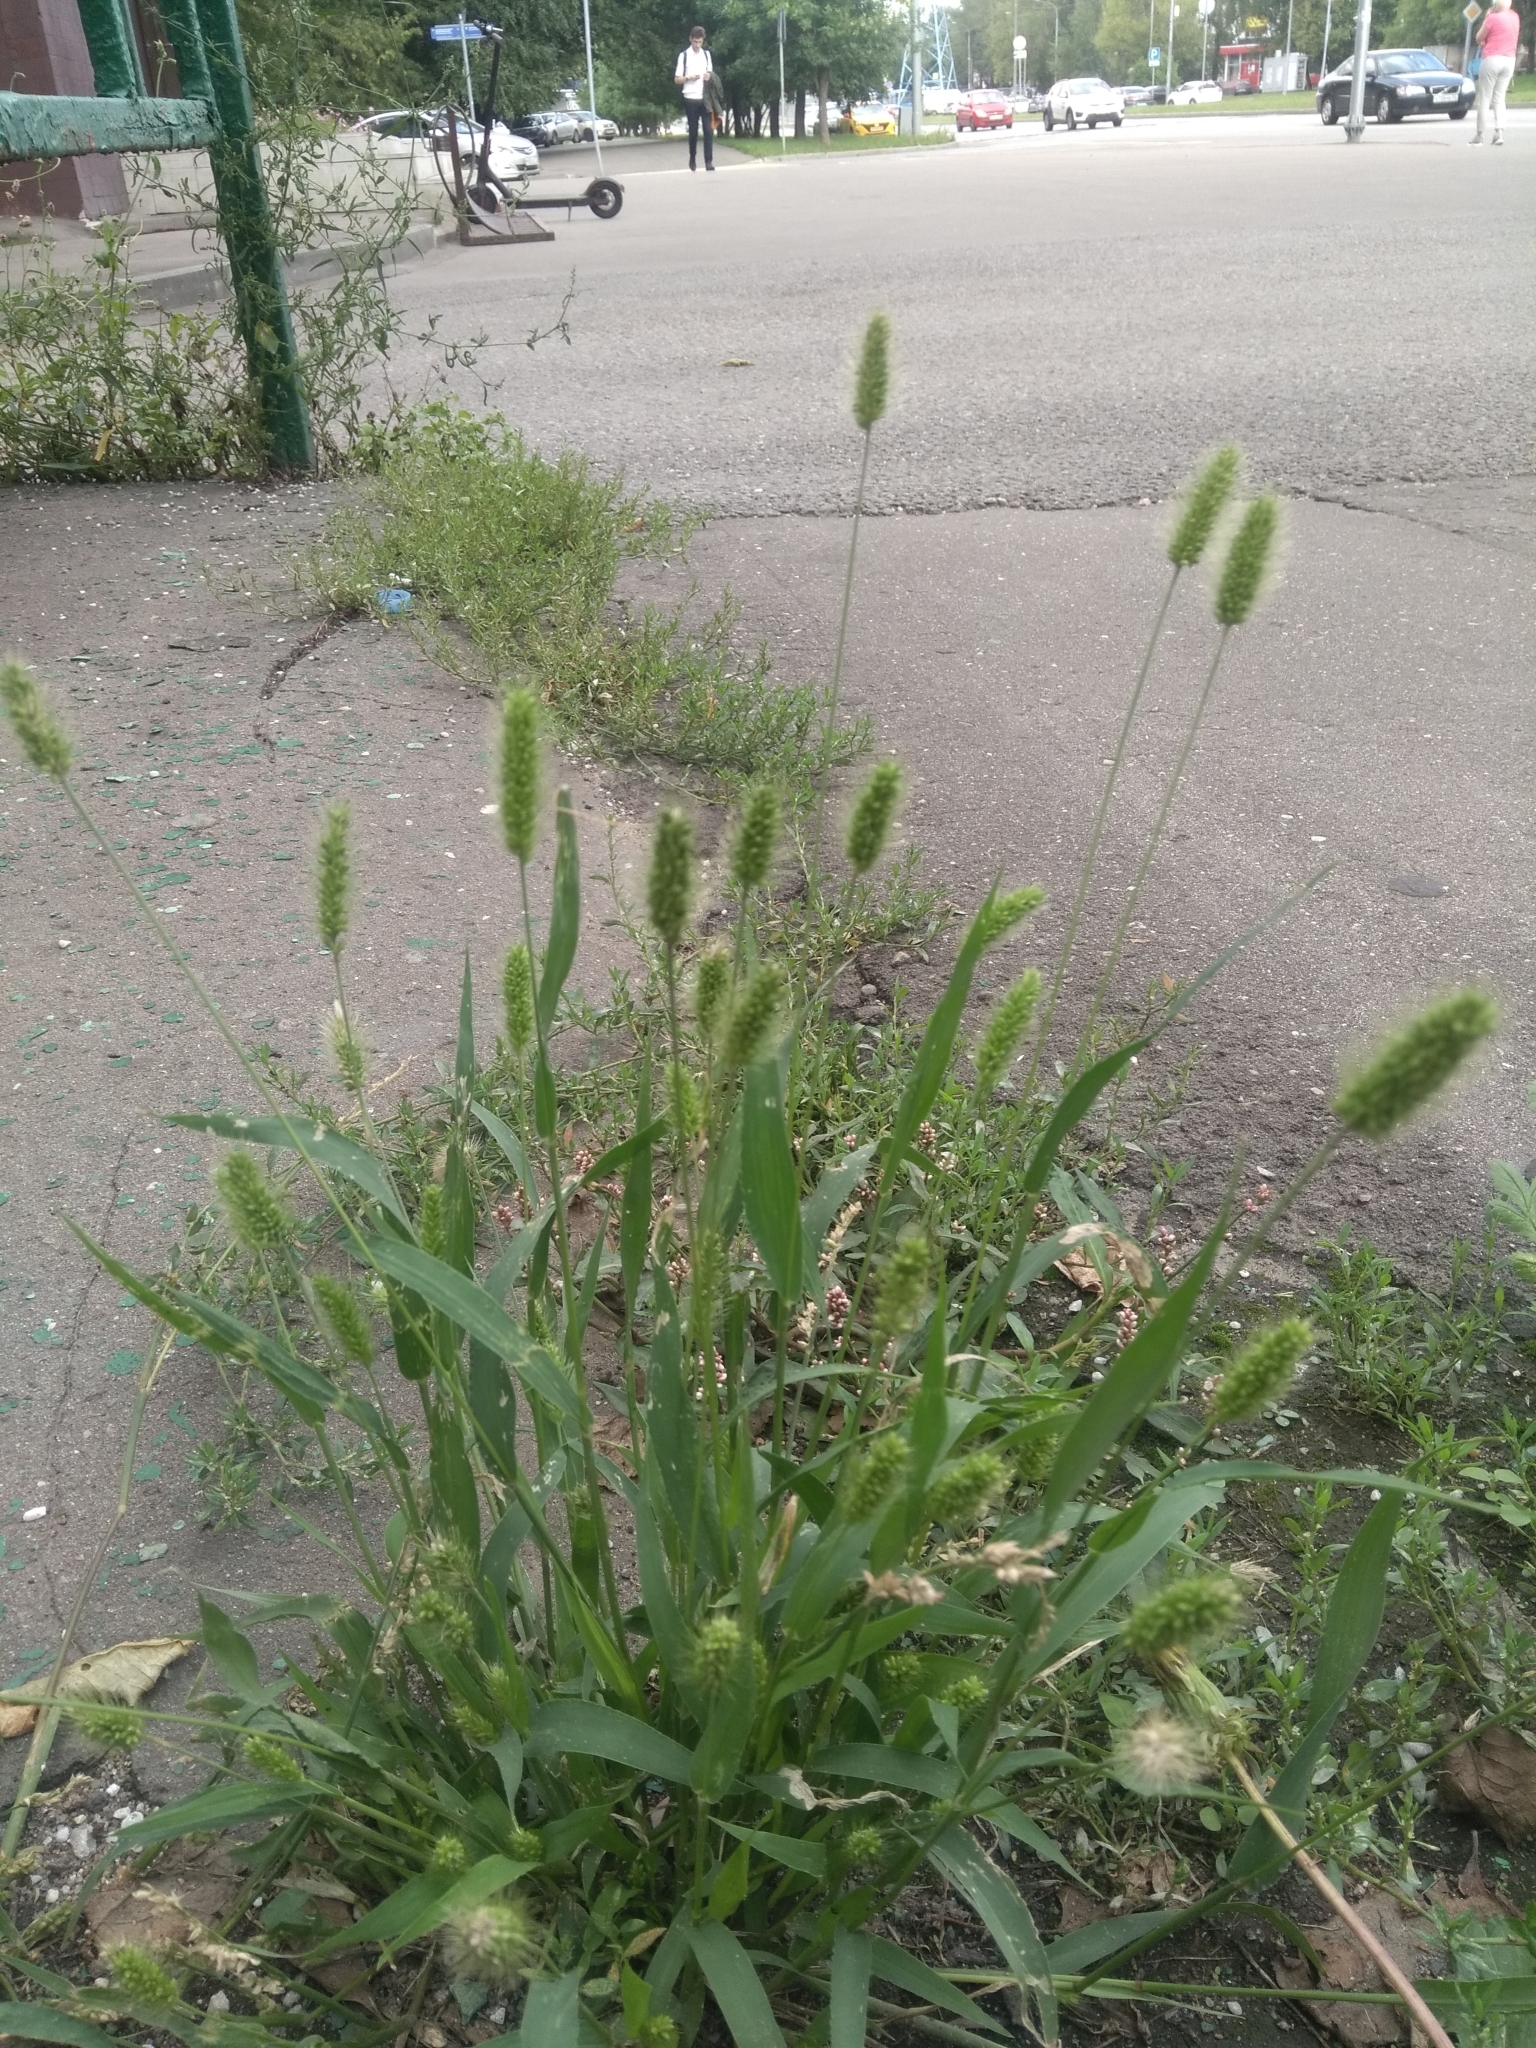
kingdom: Plantae
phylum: Tracheophyta
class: Liliopsida
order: Poales
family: Poaceae
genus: Setaria
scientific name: Setaria viridis
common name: Green bristlegrass
